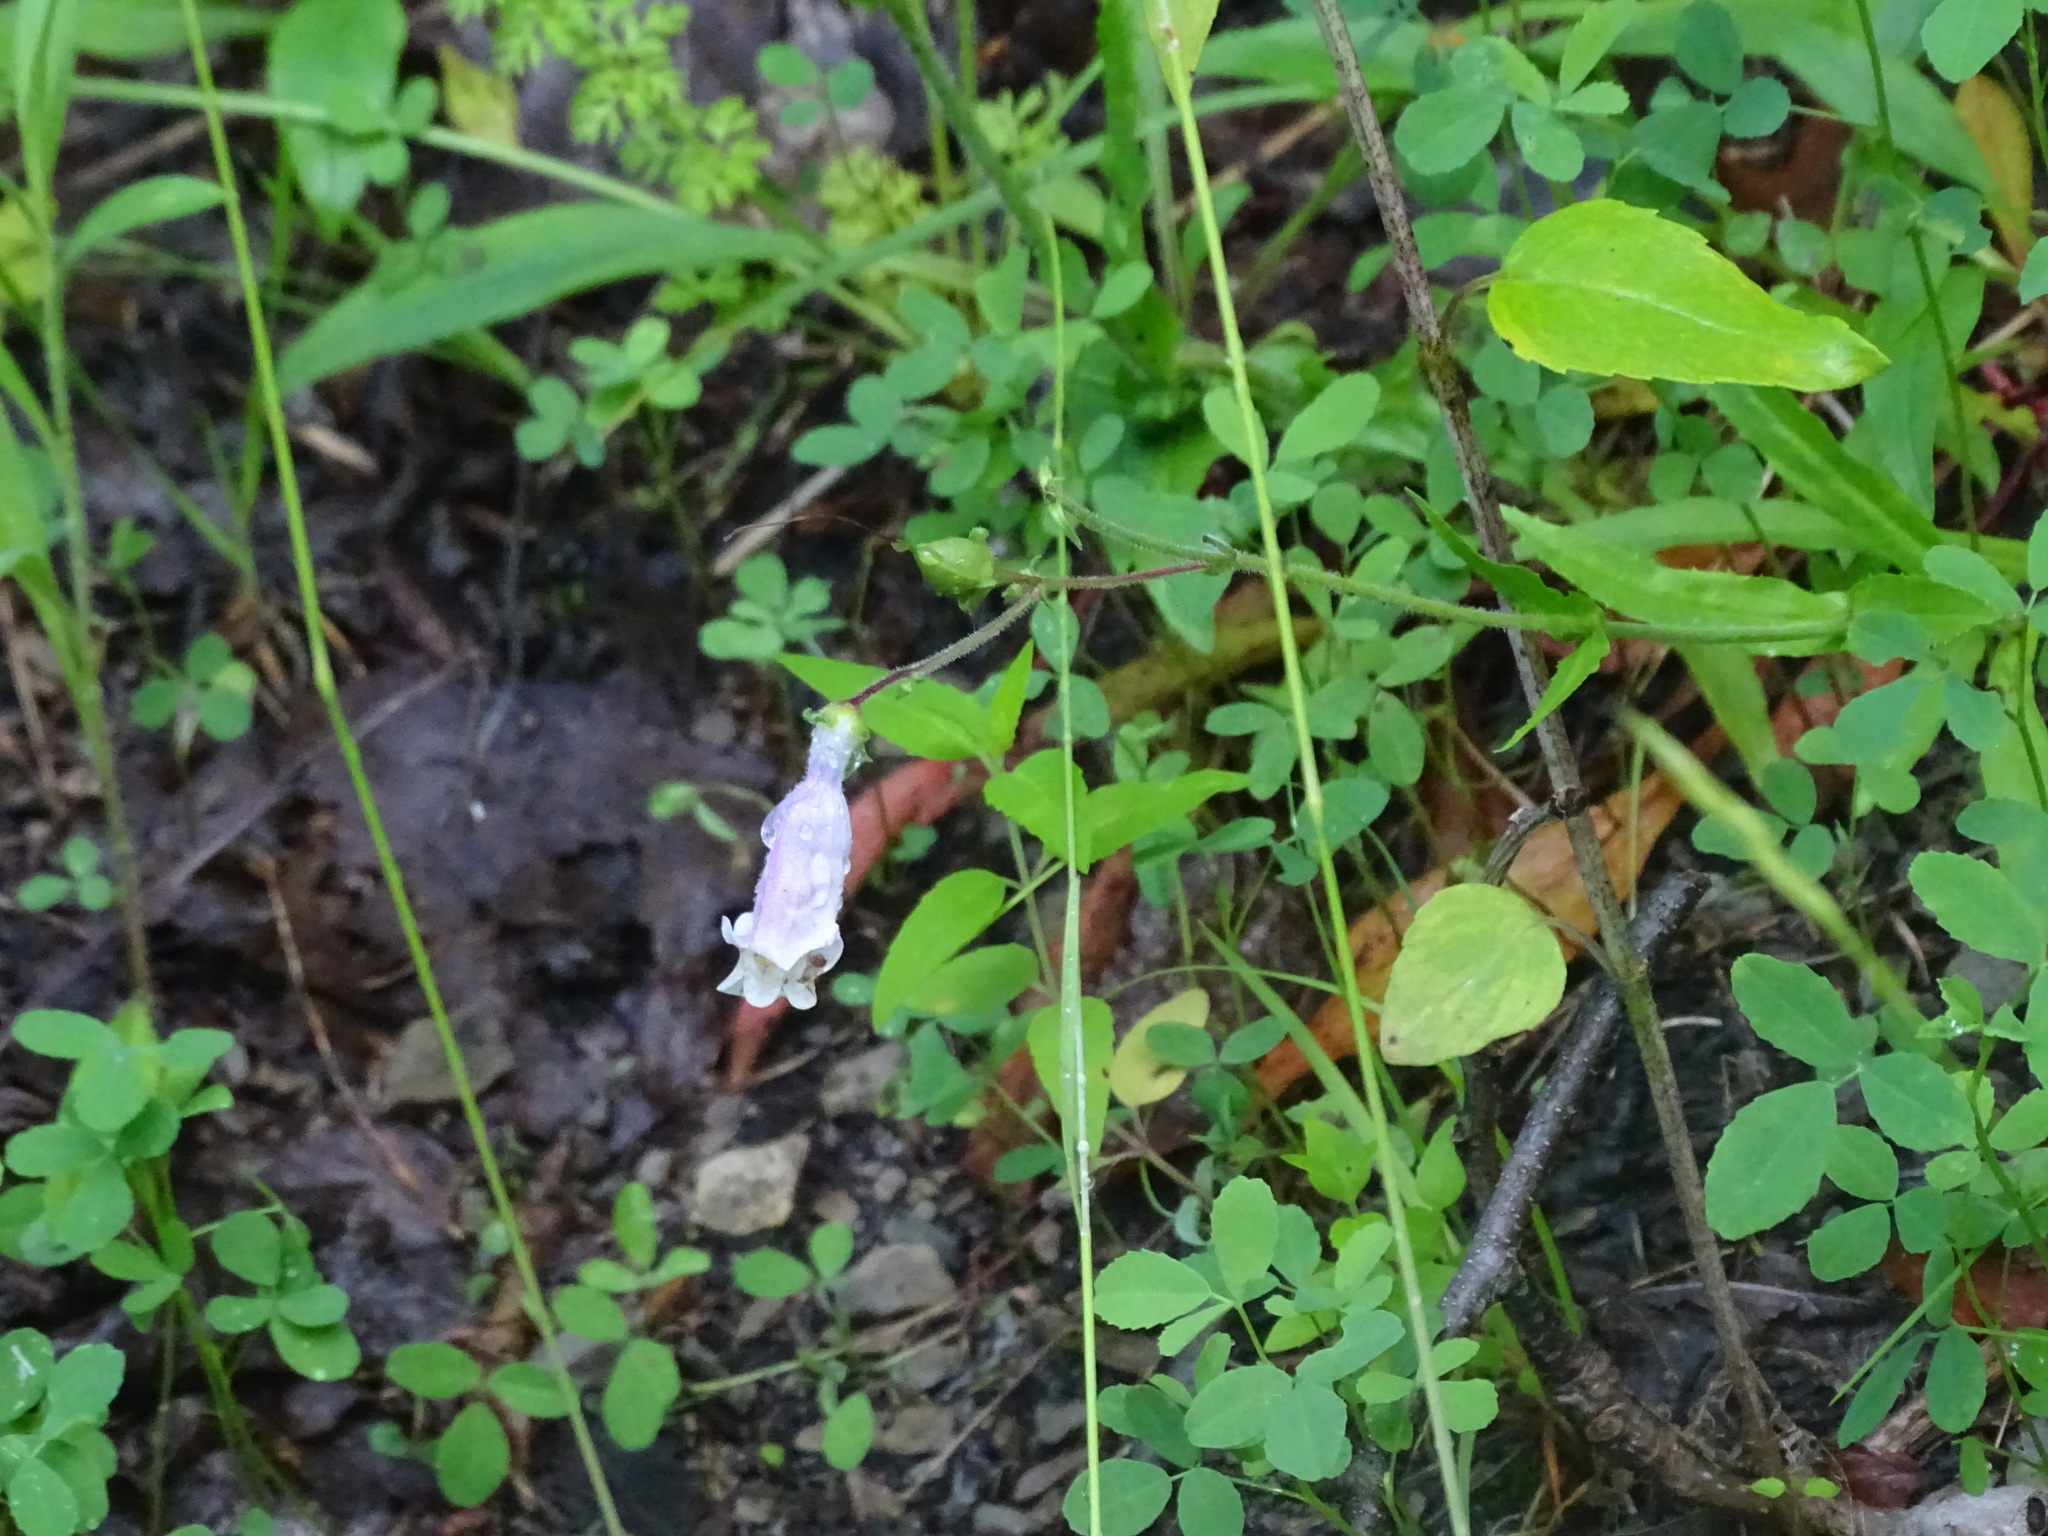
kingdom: Plantae
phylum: Tracheophyta
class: Magnoliopsida
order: Lamiales
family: Plantaginaceae
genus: Penstemon
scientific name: Penstemon hirsutus
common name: Hairy beardtongue
